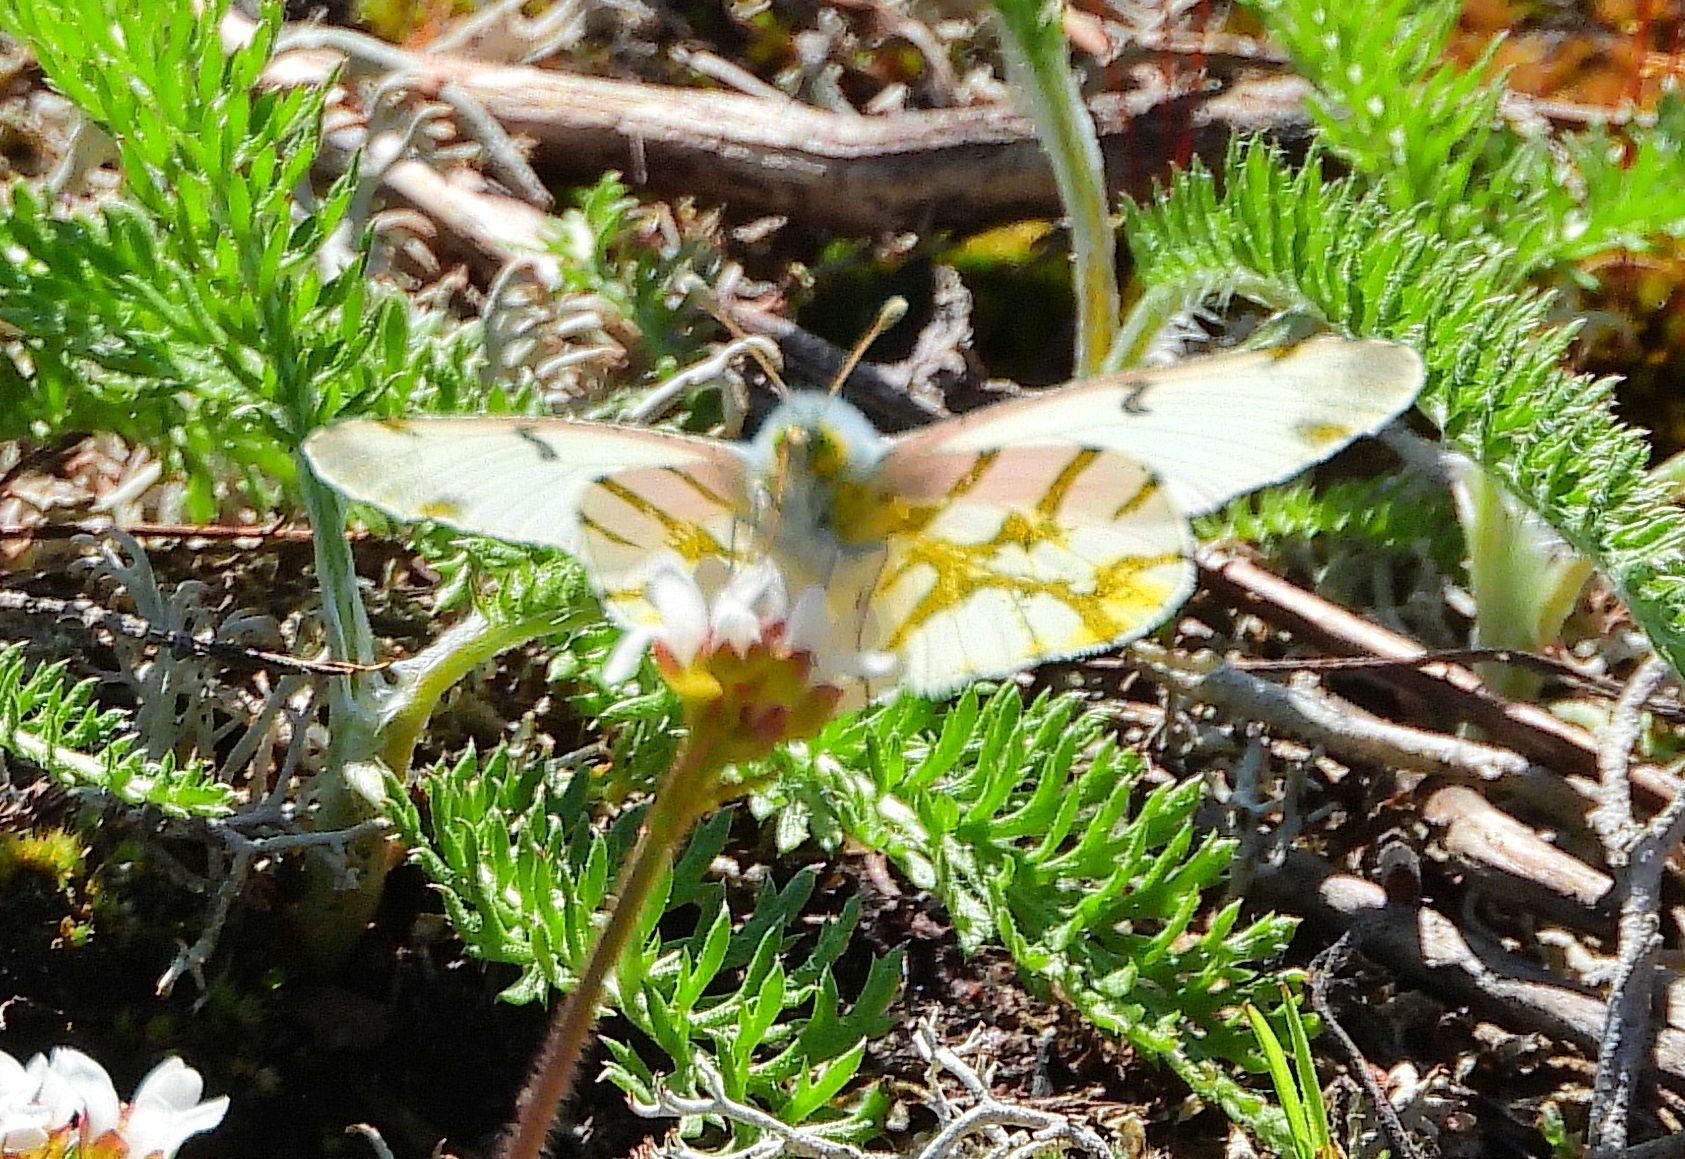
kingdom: Animalia
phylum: Arthropoda
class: Insecta
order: Lepidoptera
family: Pieridae
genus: Euchloe
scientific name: Euchloe olympia
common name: Olympia
